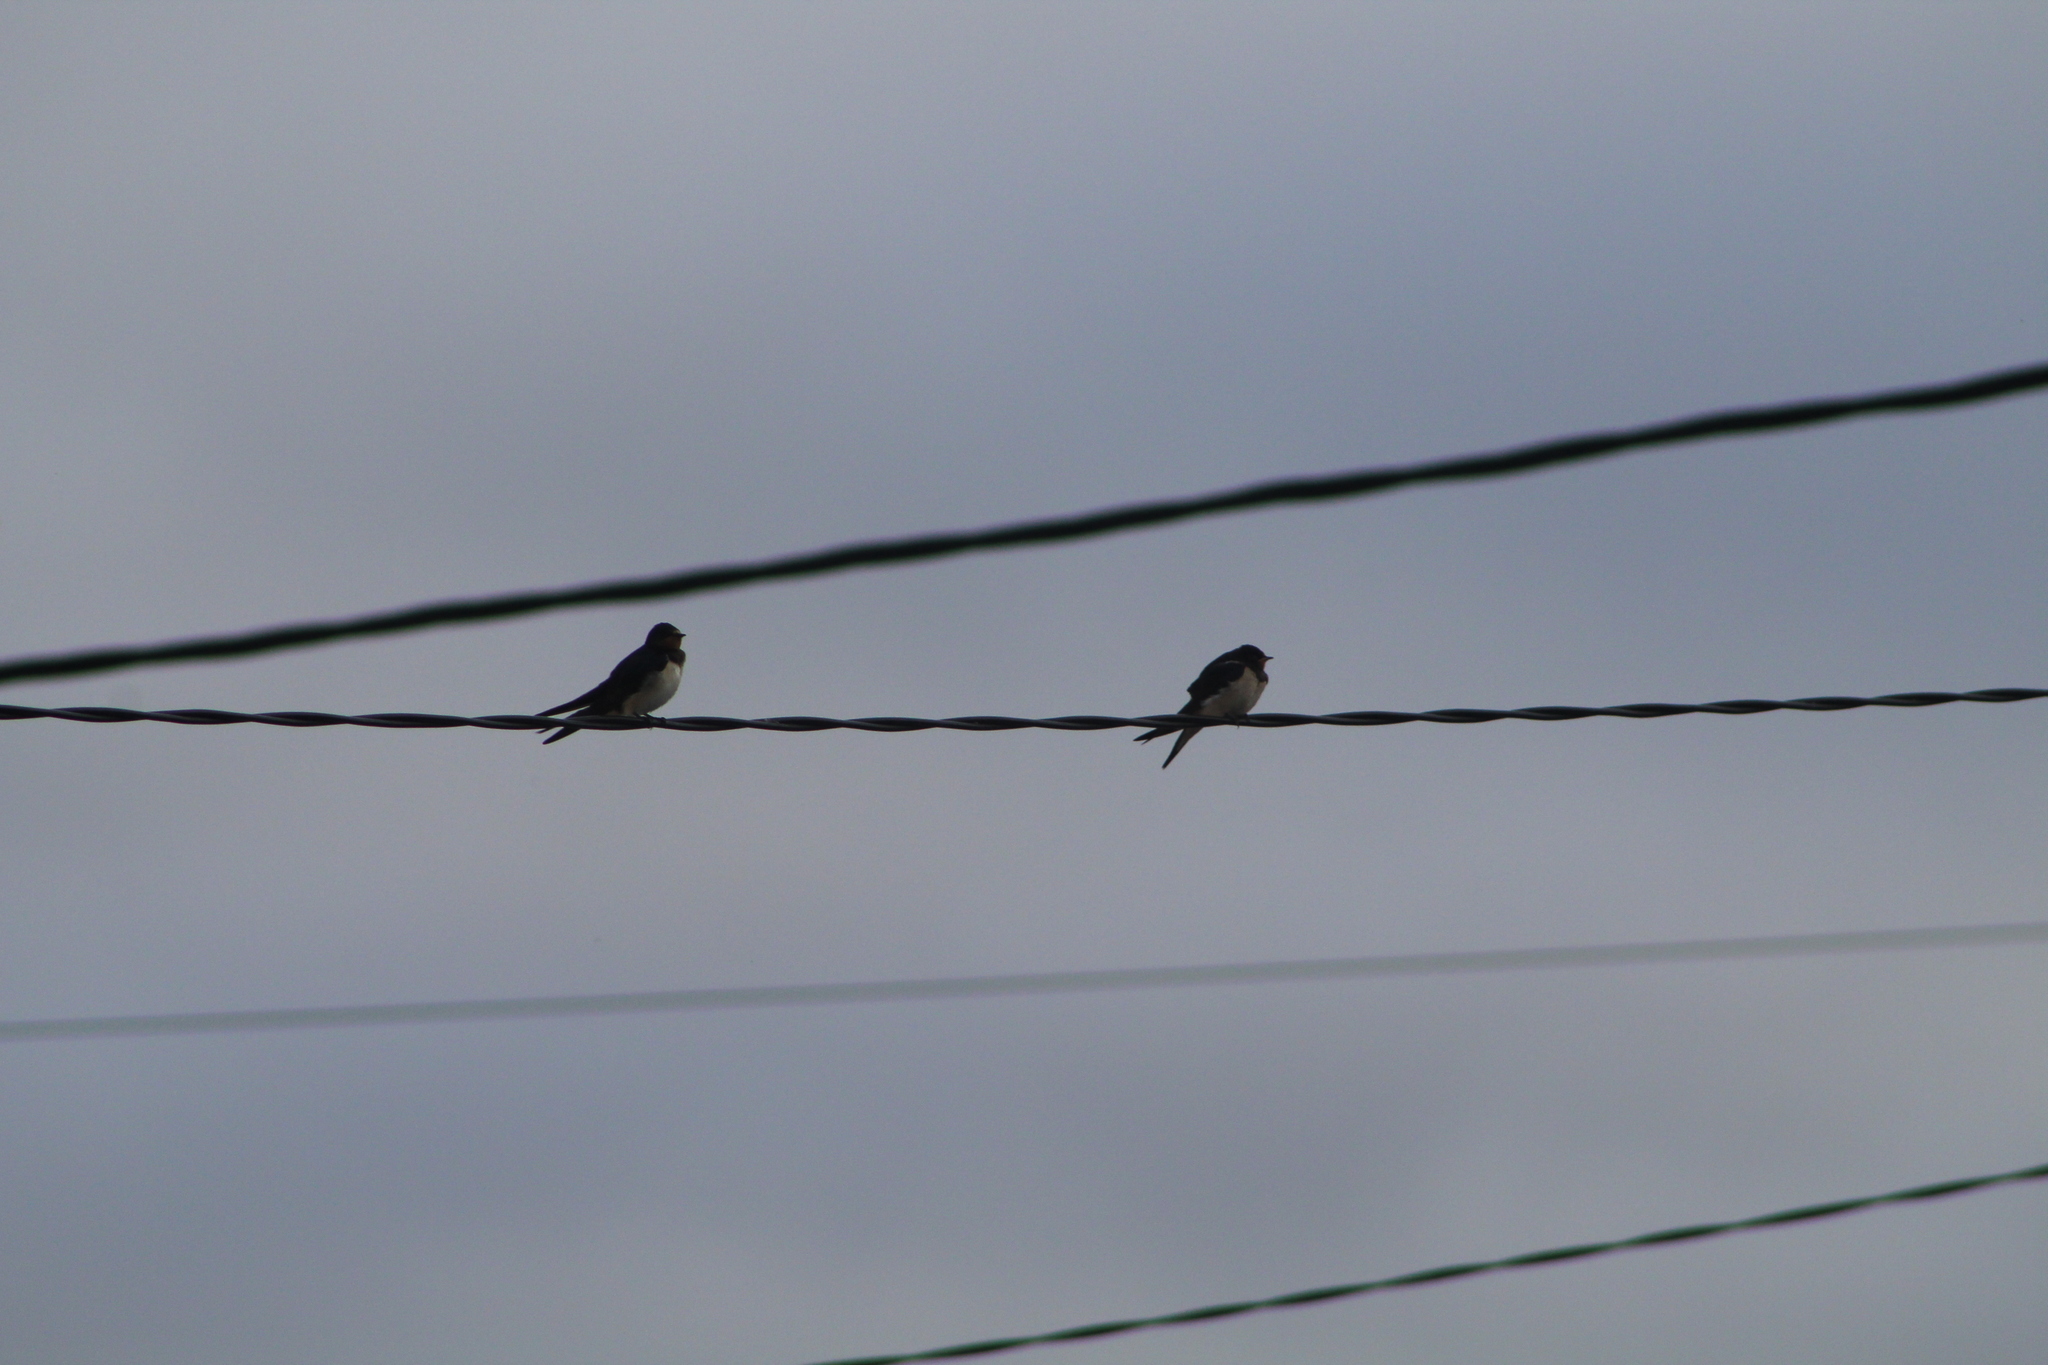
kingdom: Animalia
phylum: Chordata
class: Aves
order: Passeriformes
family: Hirundinidae
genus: Hirundo
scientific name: Hirundo rustica
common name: Barn swallow
